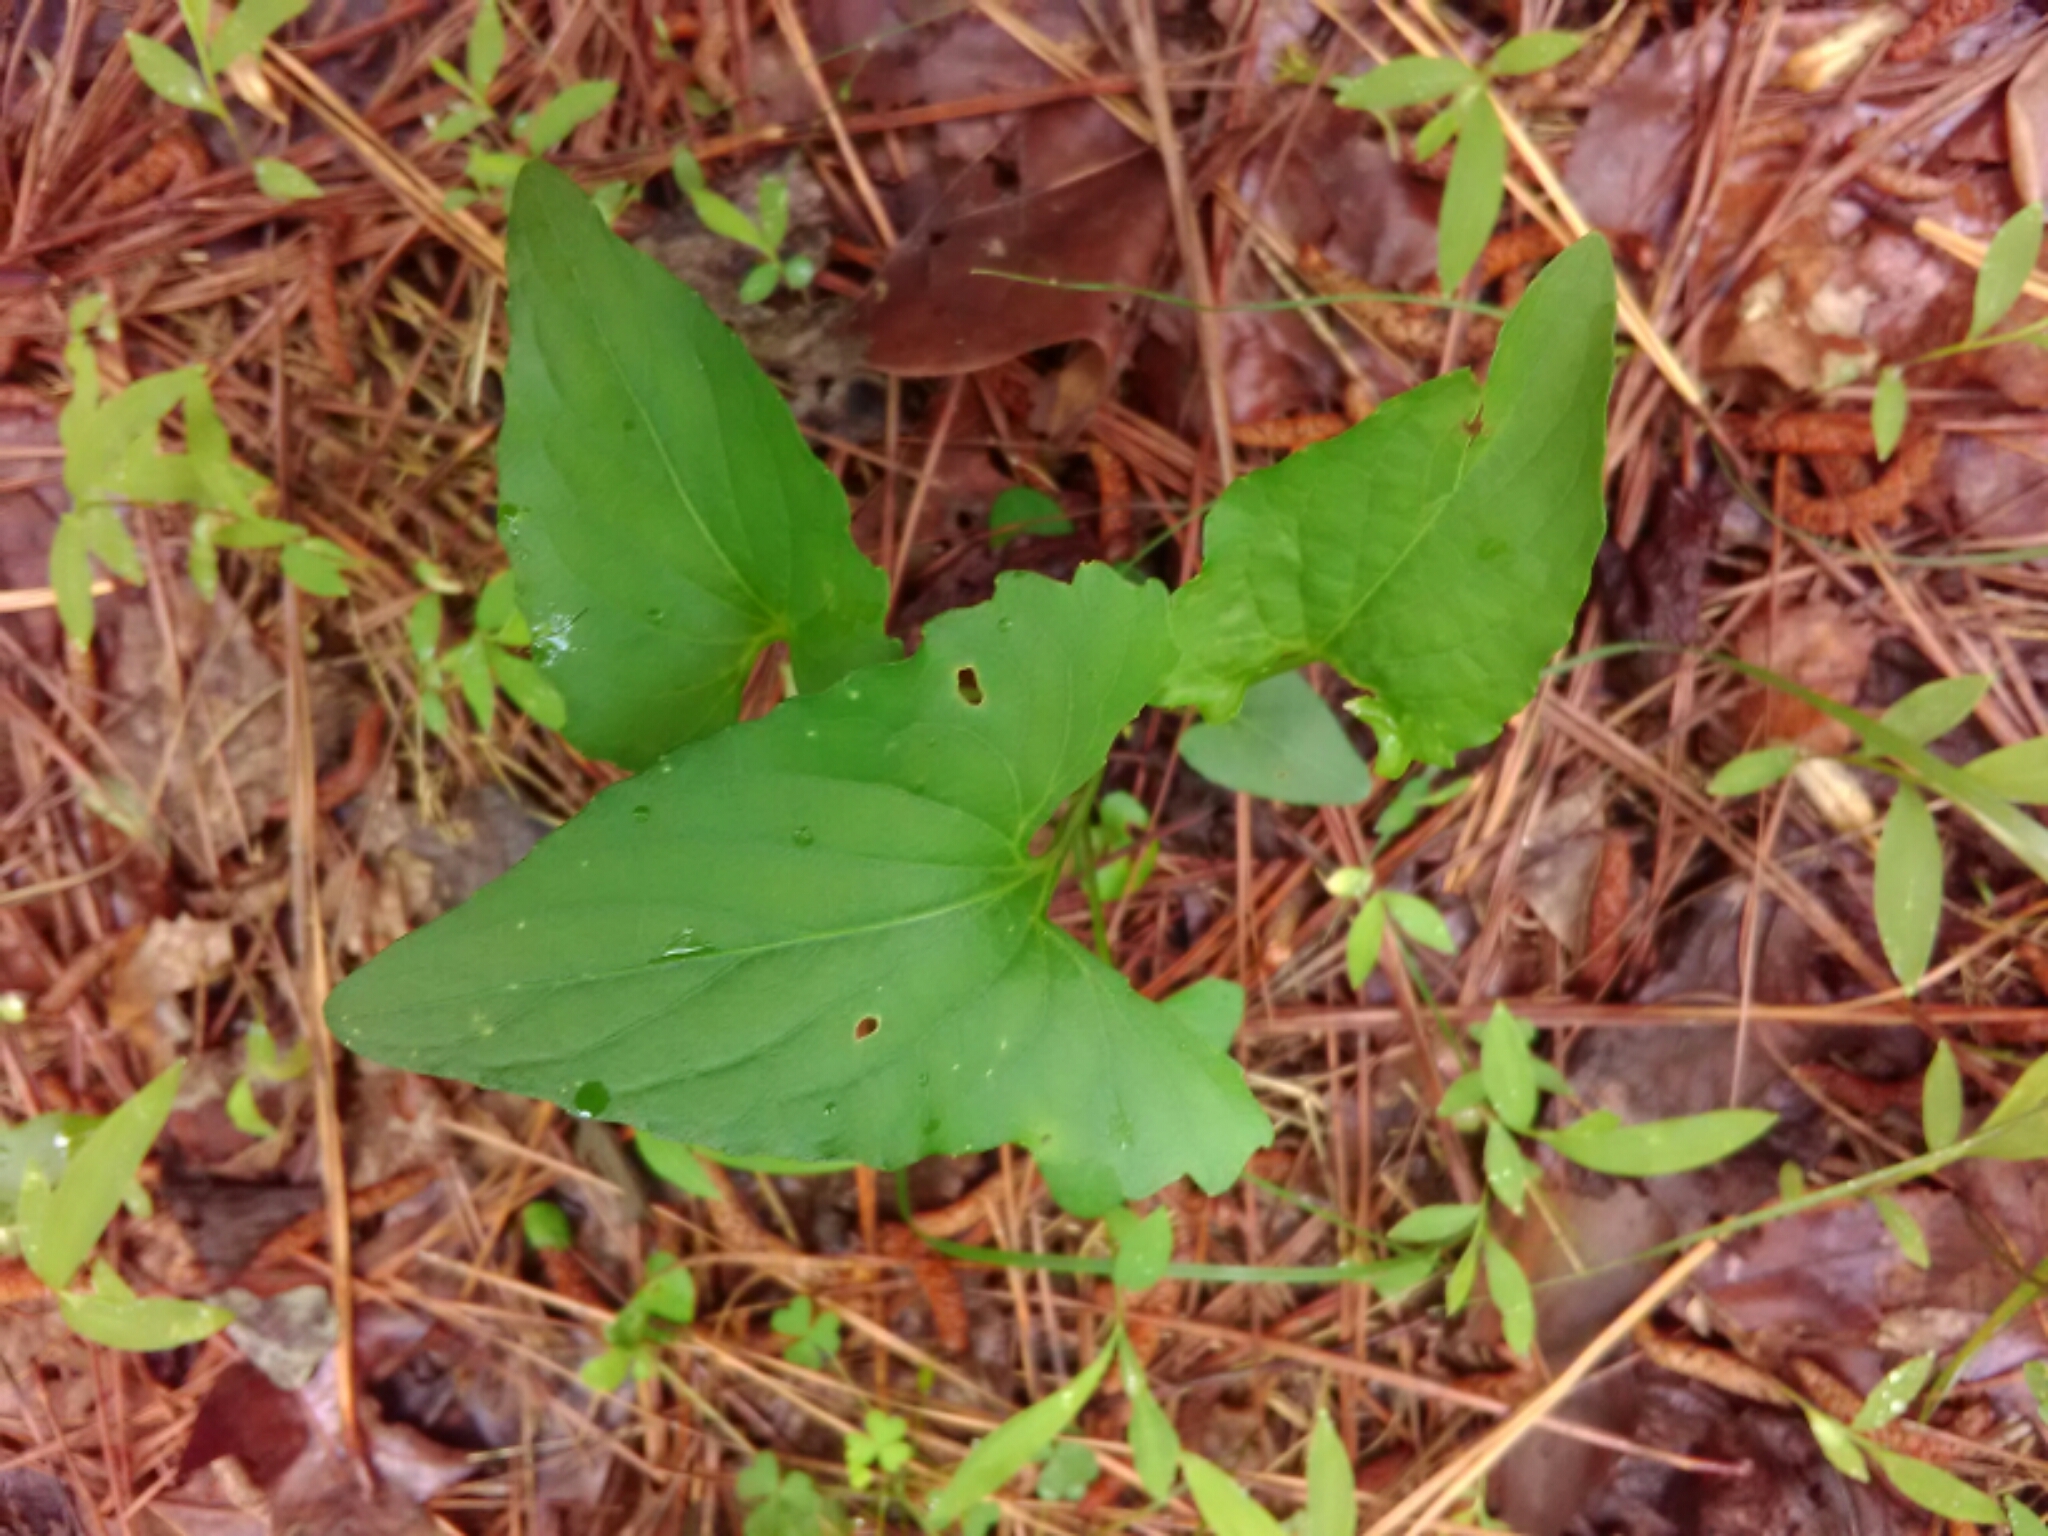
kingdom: Plantae
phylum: Tracheophyta
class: Magnoliopsida
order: Piperales
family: Saururaceae
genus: Saururus
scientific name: Saururus cernuus
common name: Lizard's-tail
